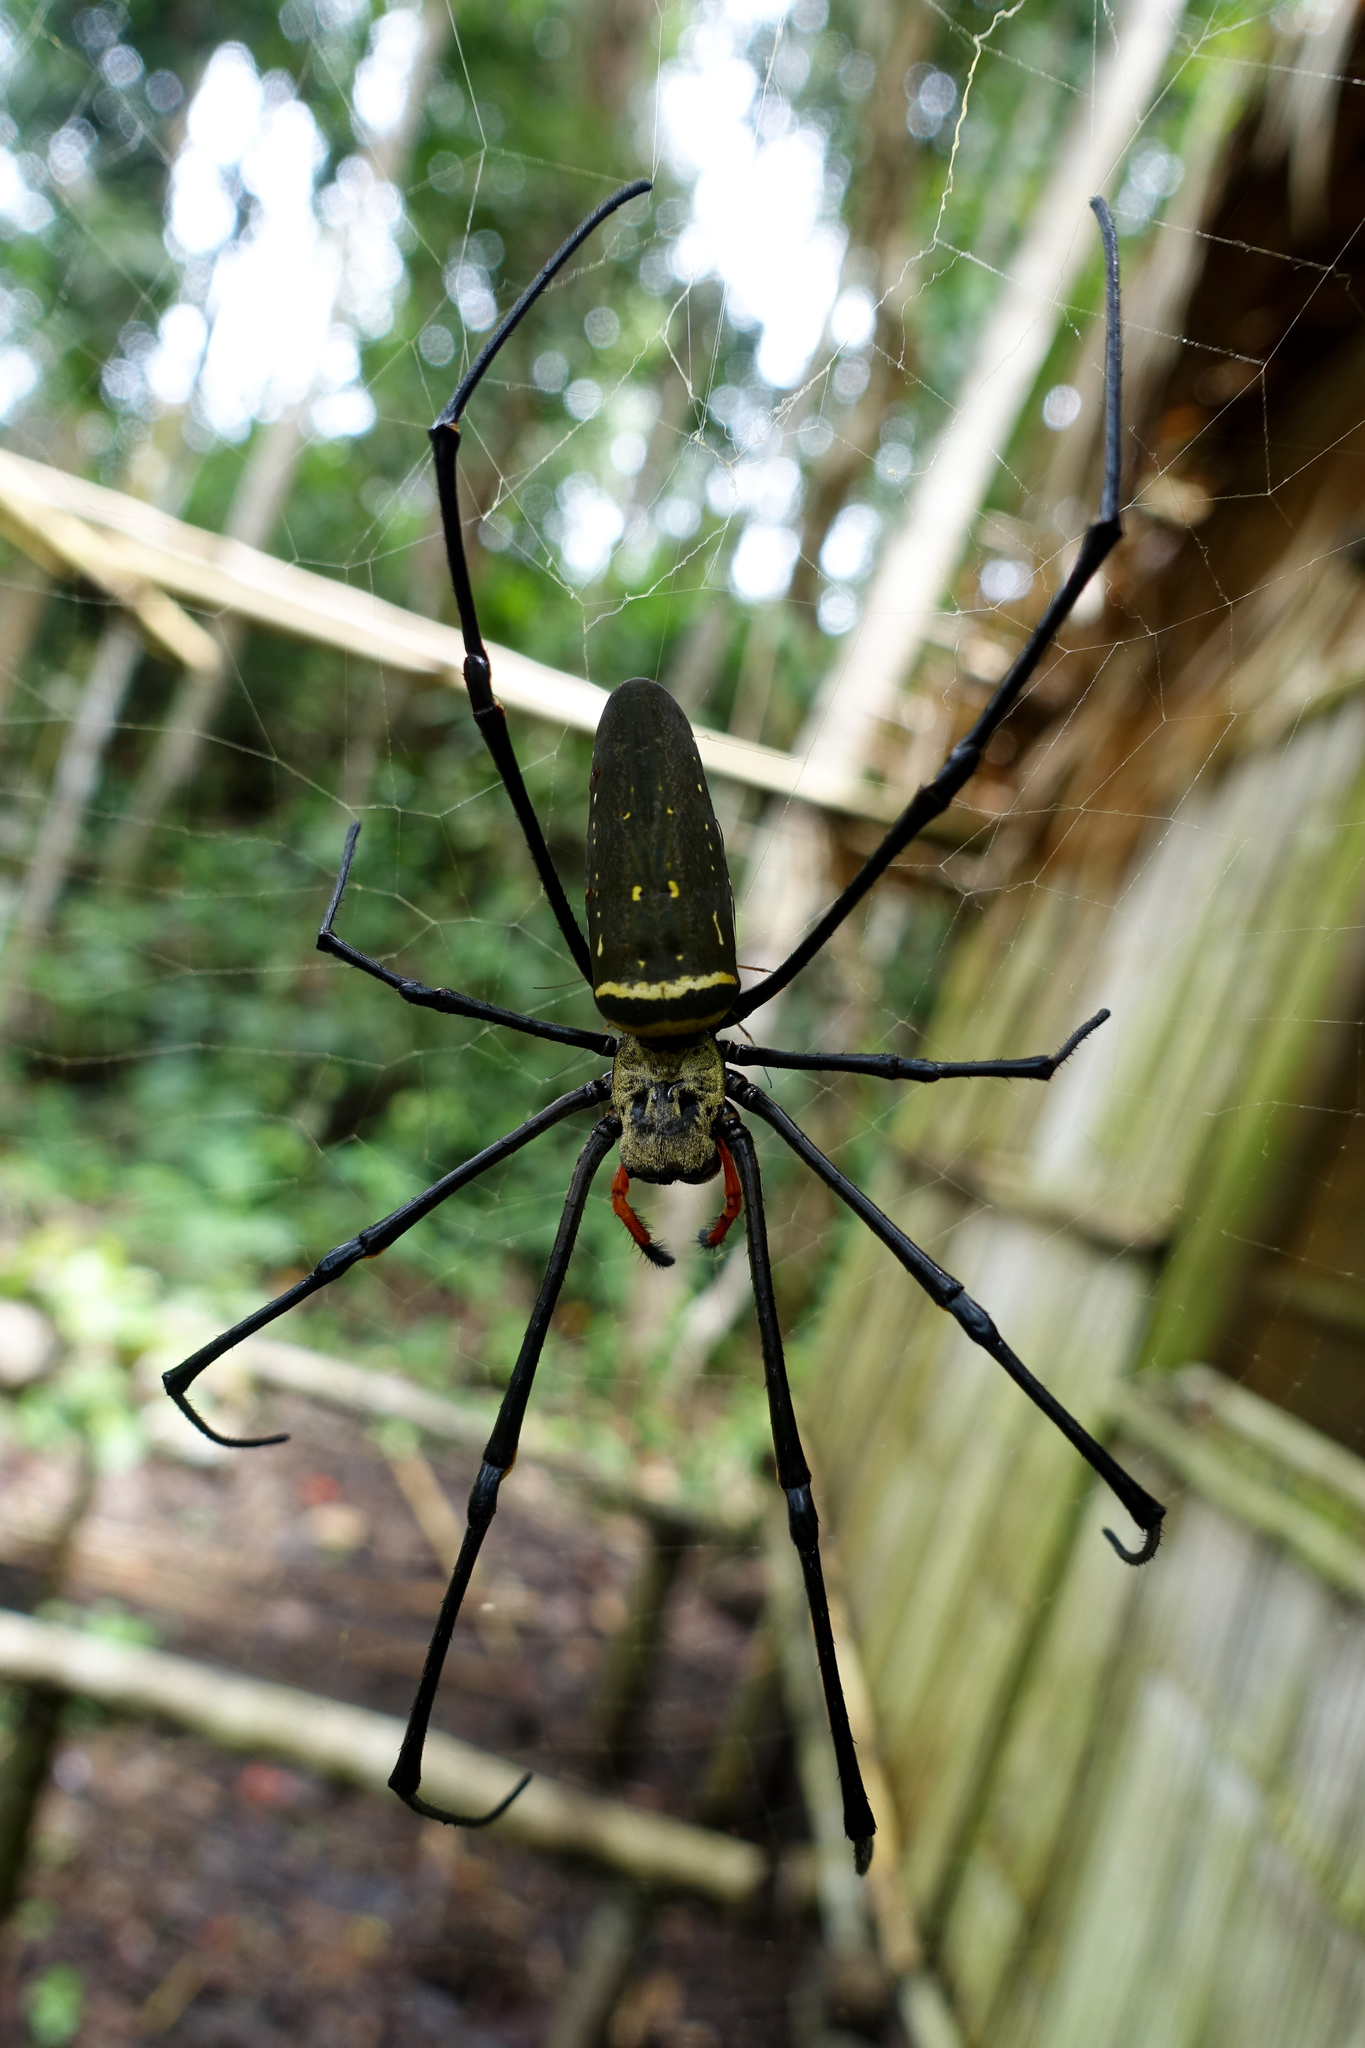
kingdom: Animalia
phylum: Arthropoda
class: Arachnida
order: Araneae
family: Araneidae
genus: Nephila
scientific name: Nephila pilipes
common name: Giant golden orb weaver
